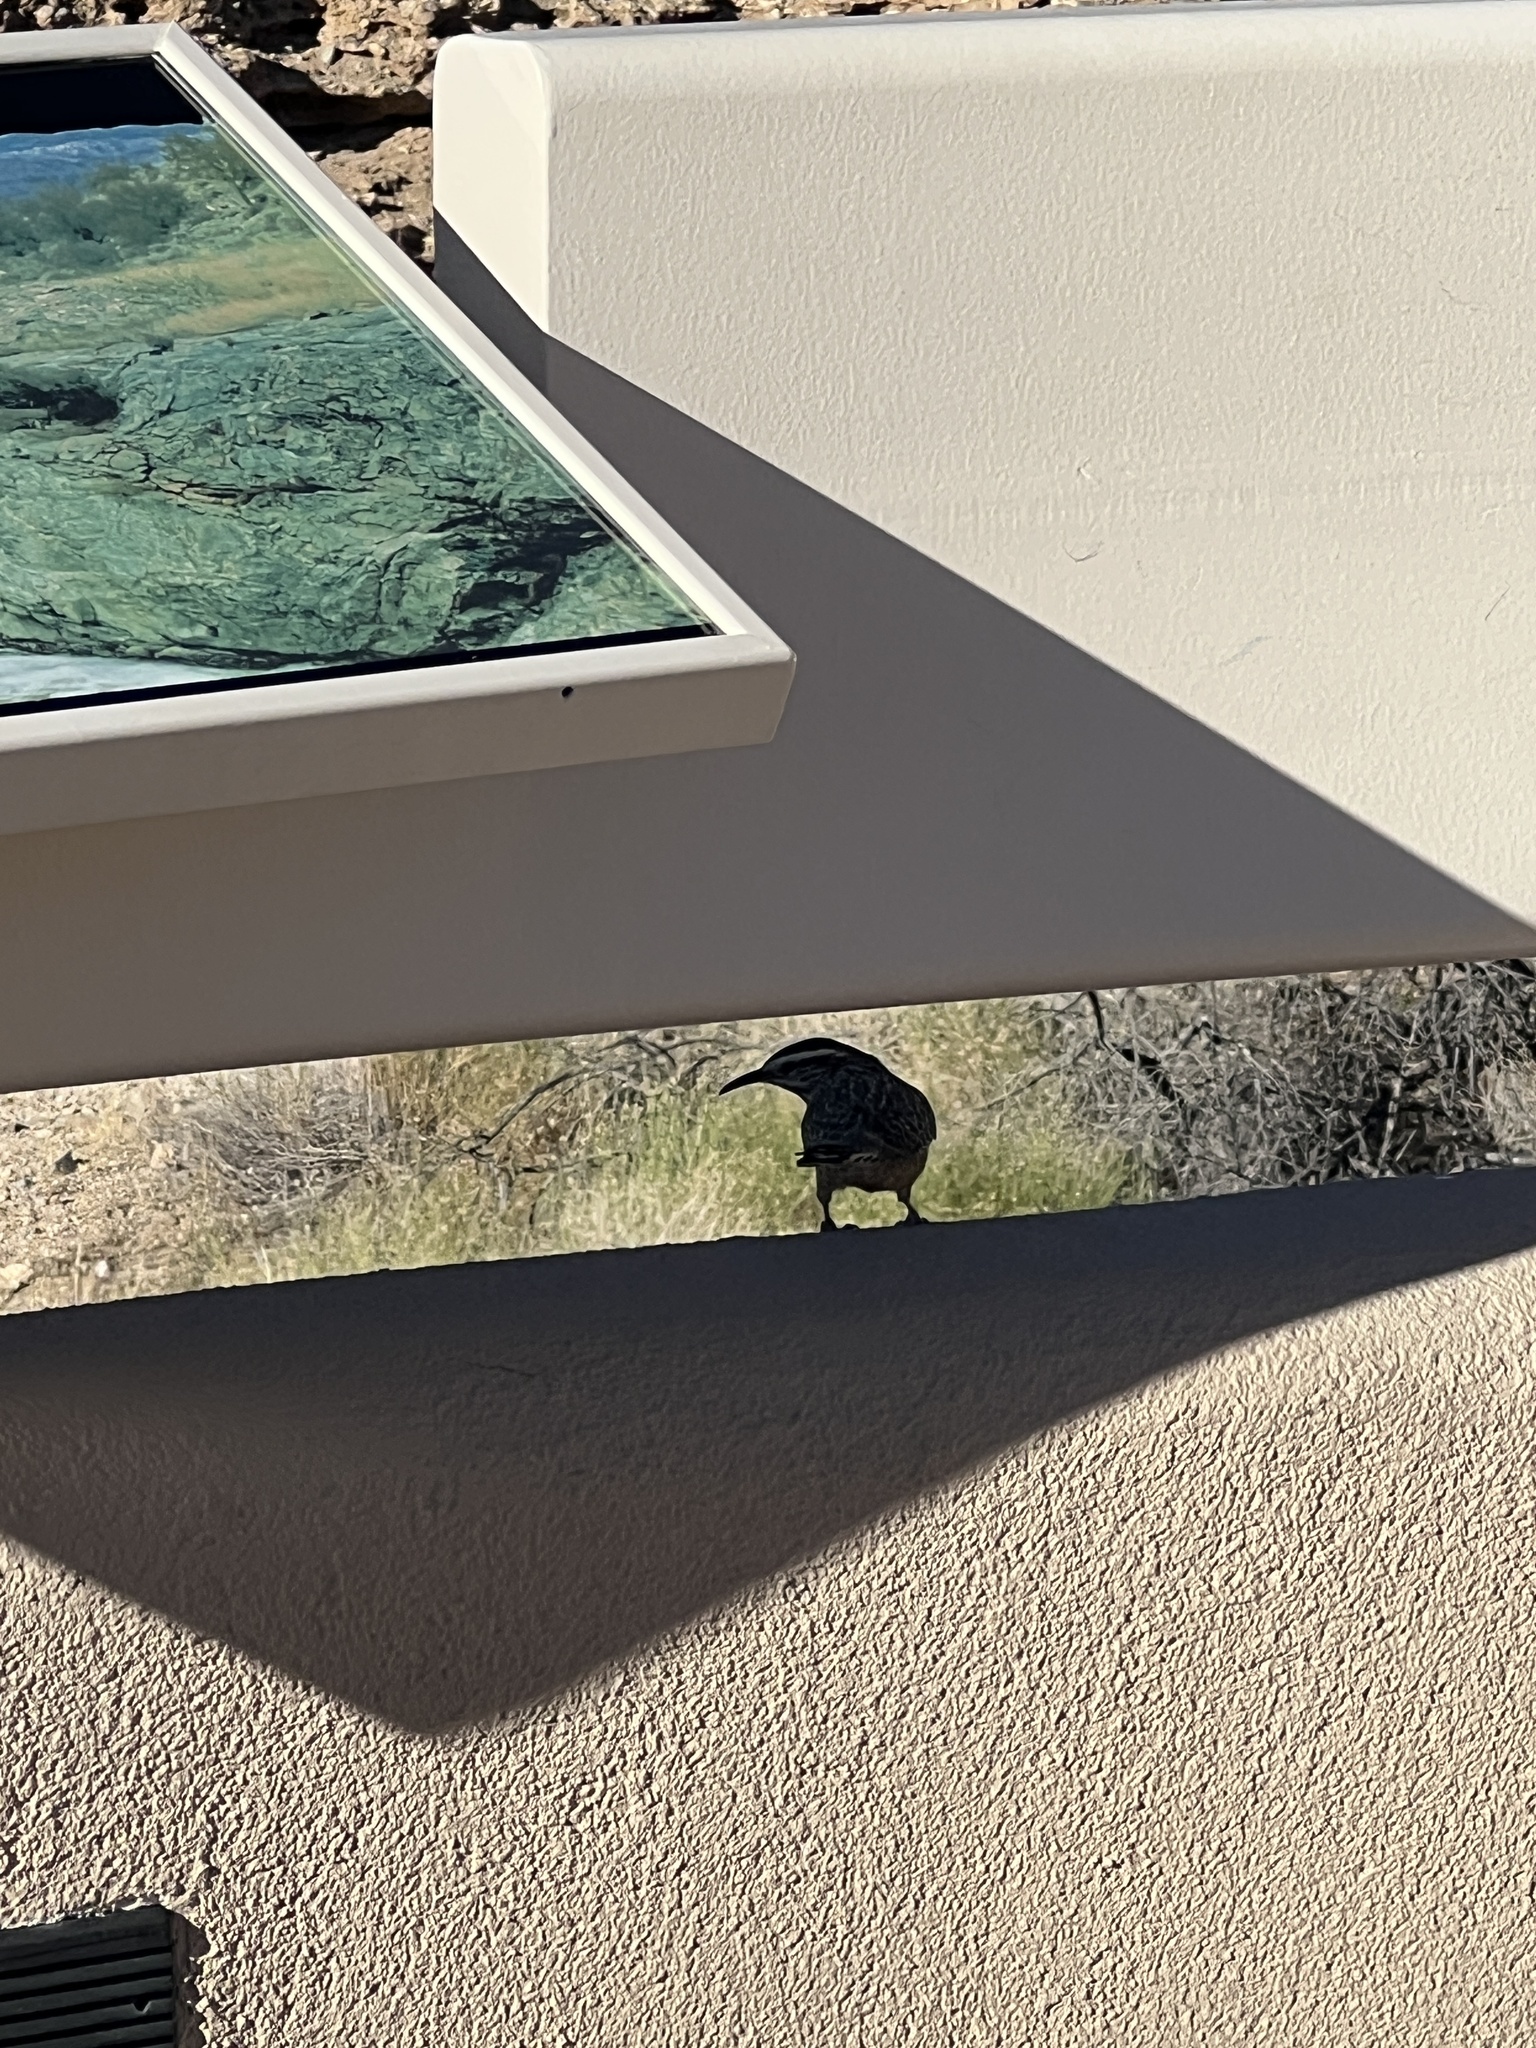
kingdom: Animalia
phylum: Chordata
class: Aves
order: Passeriformes
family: Troglodytidae
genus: Campylorhynchus
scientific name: Campylorhynchus brunneicapillus
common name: Cactus wren
